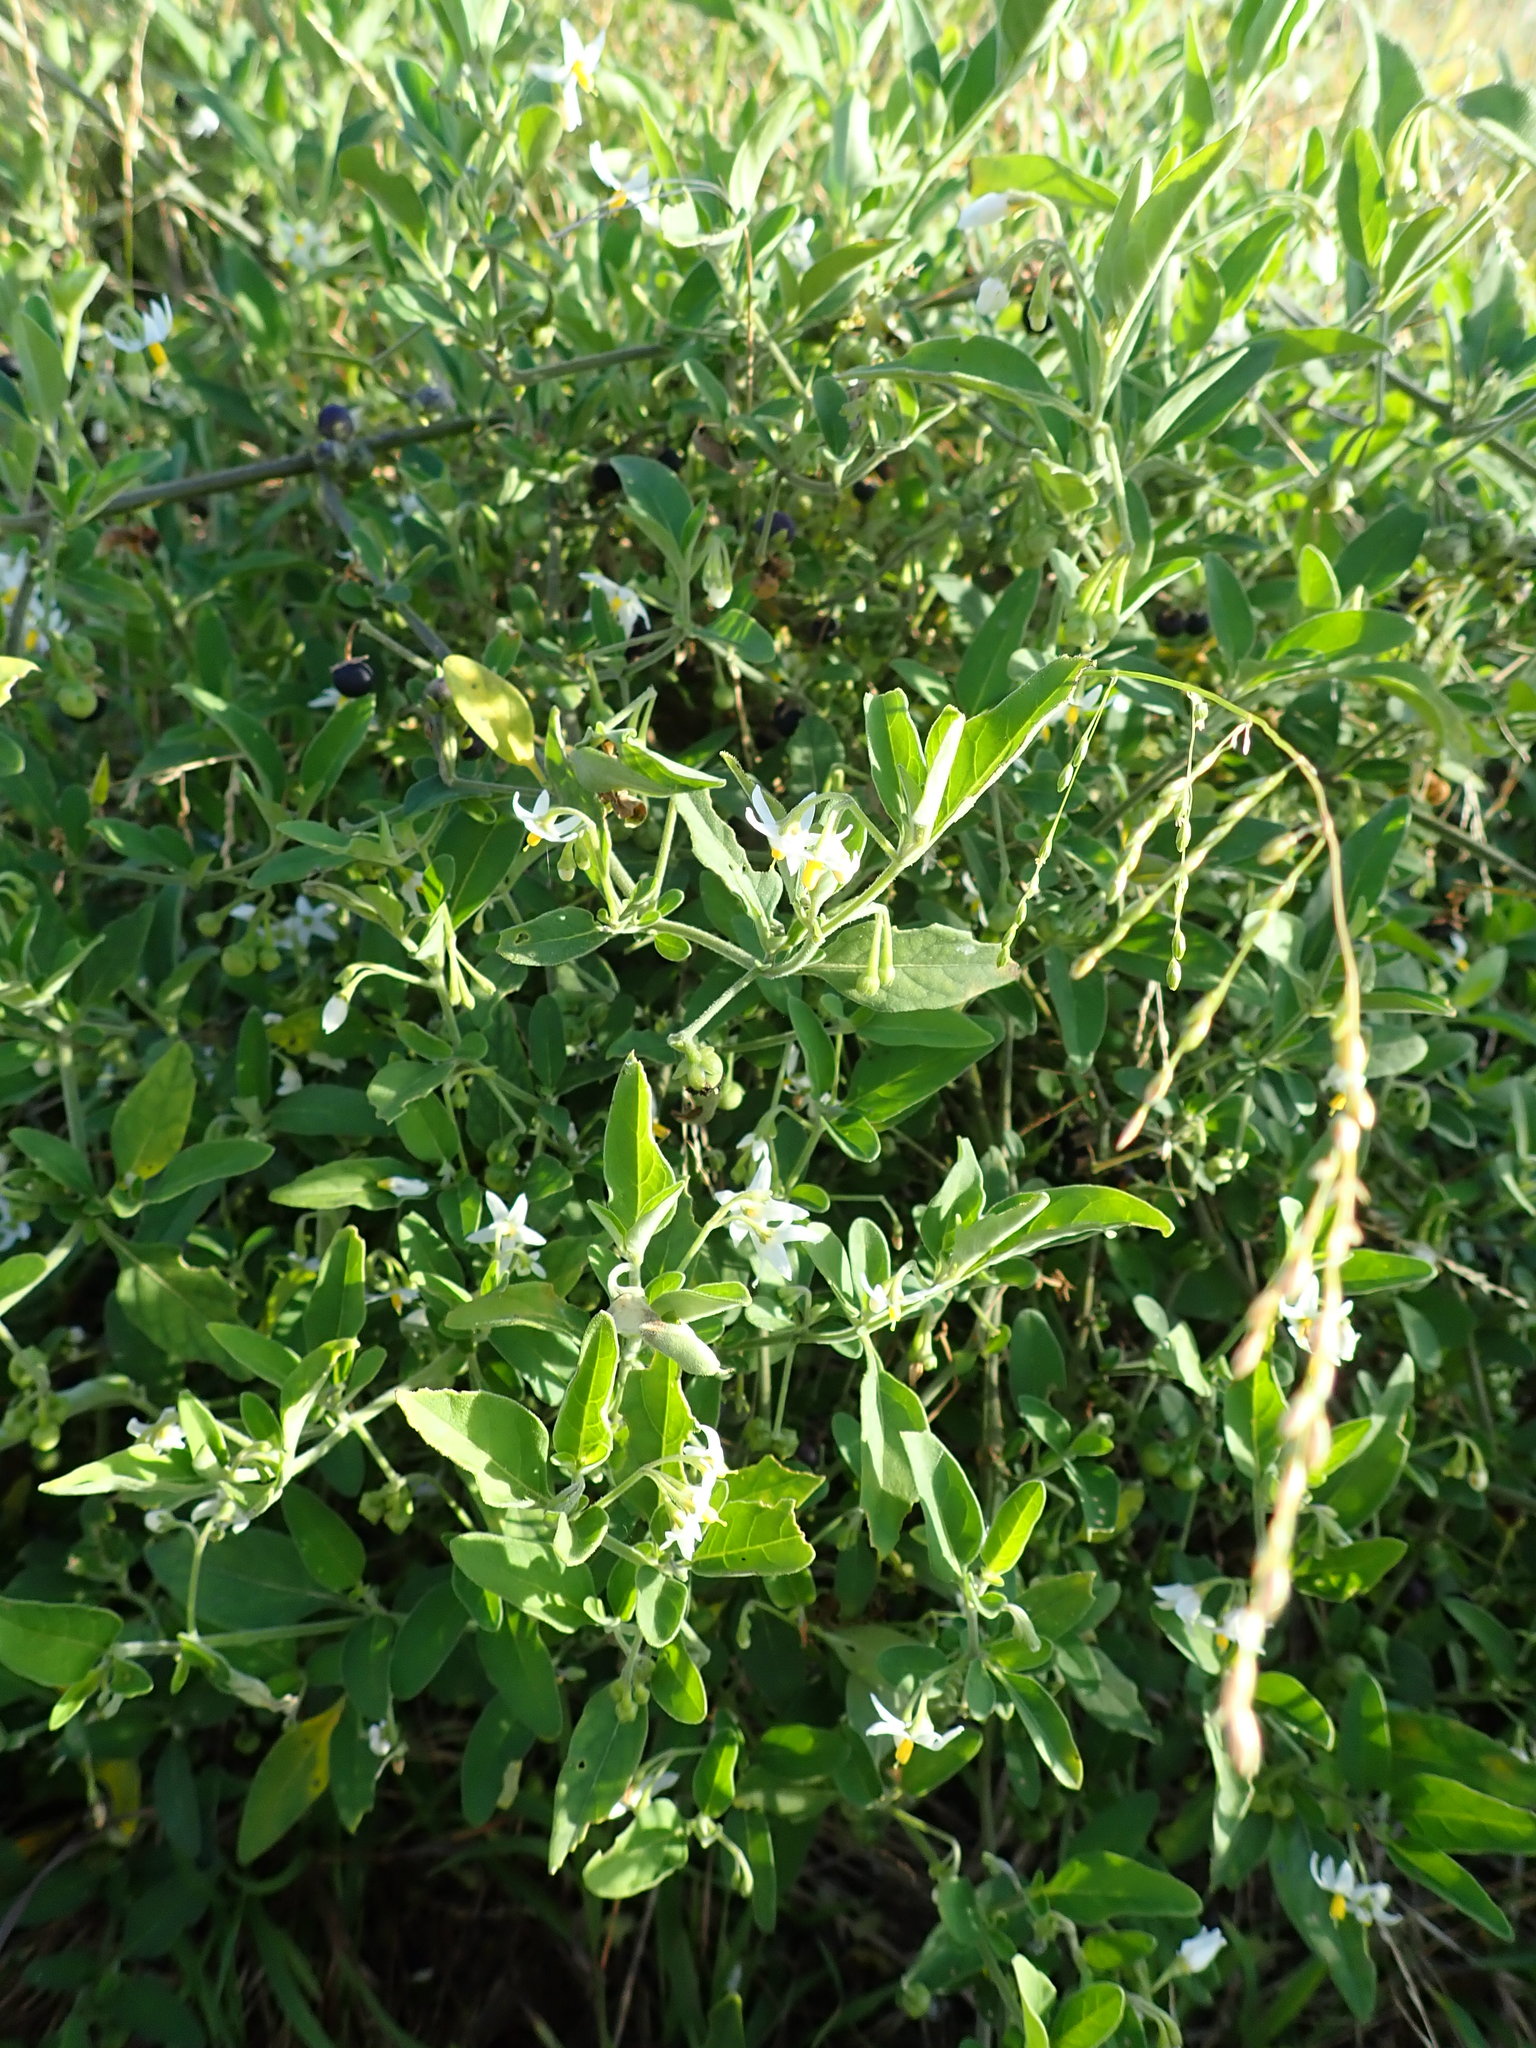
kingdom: Plantae
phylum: Tracheophyta
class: Magnoliopsida
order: Solanales
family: Solanaceae
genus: Solanum
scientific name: Solanum chenopodioides
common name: Tall nightshade
